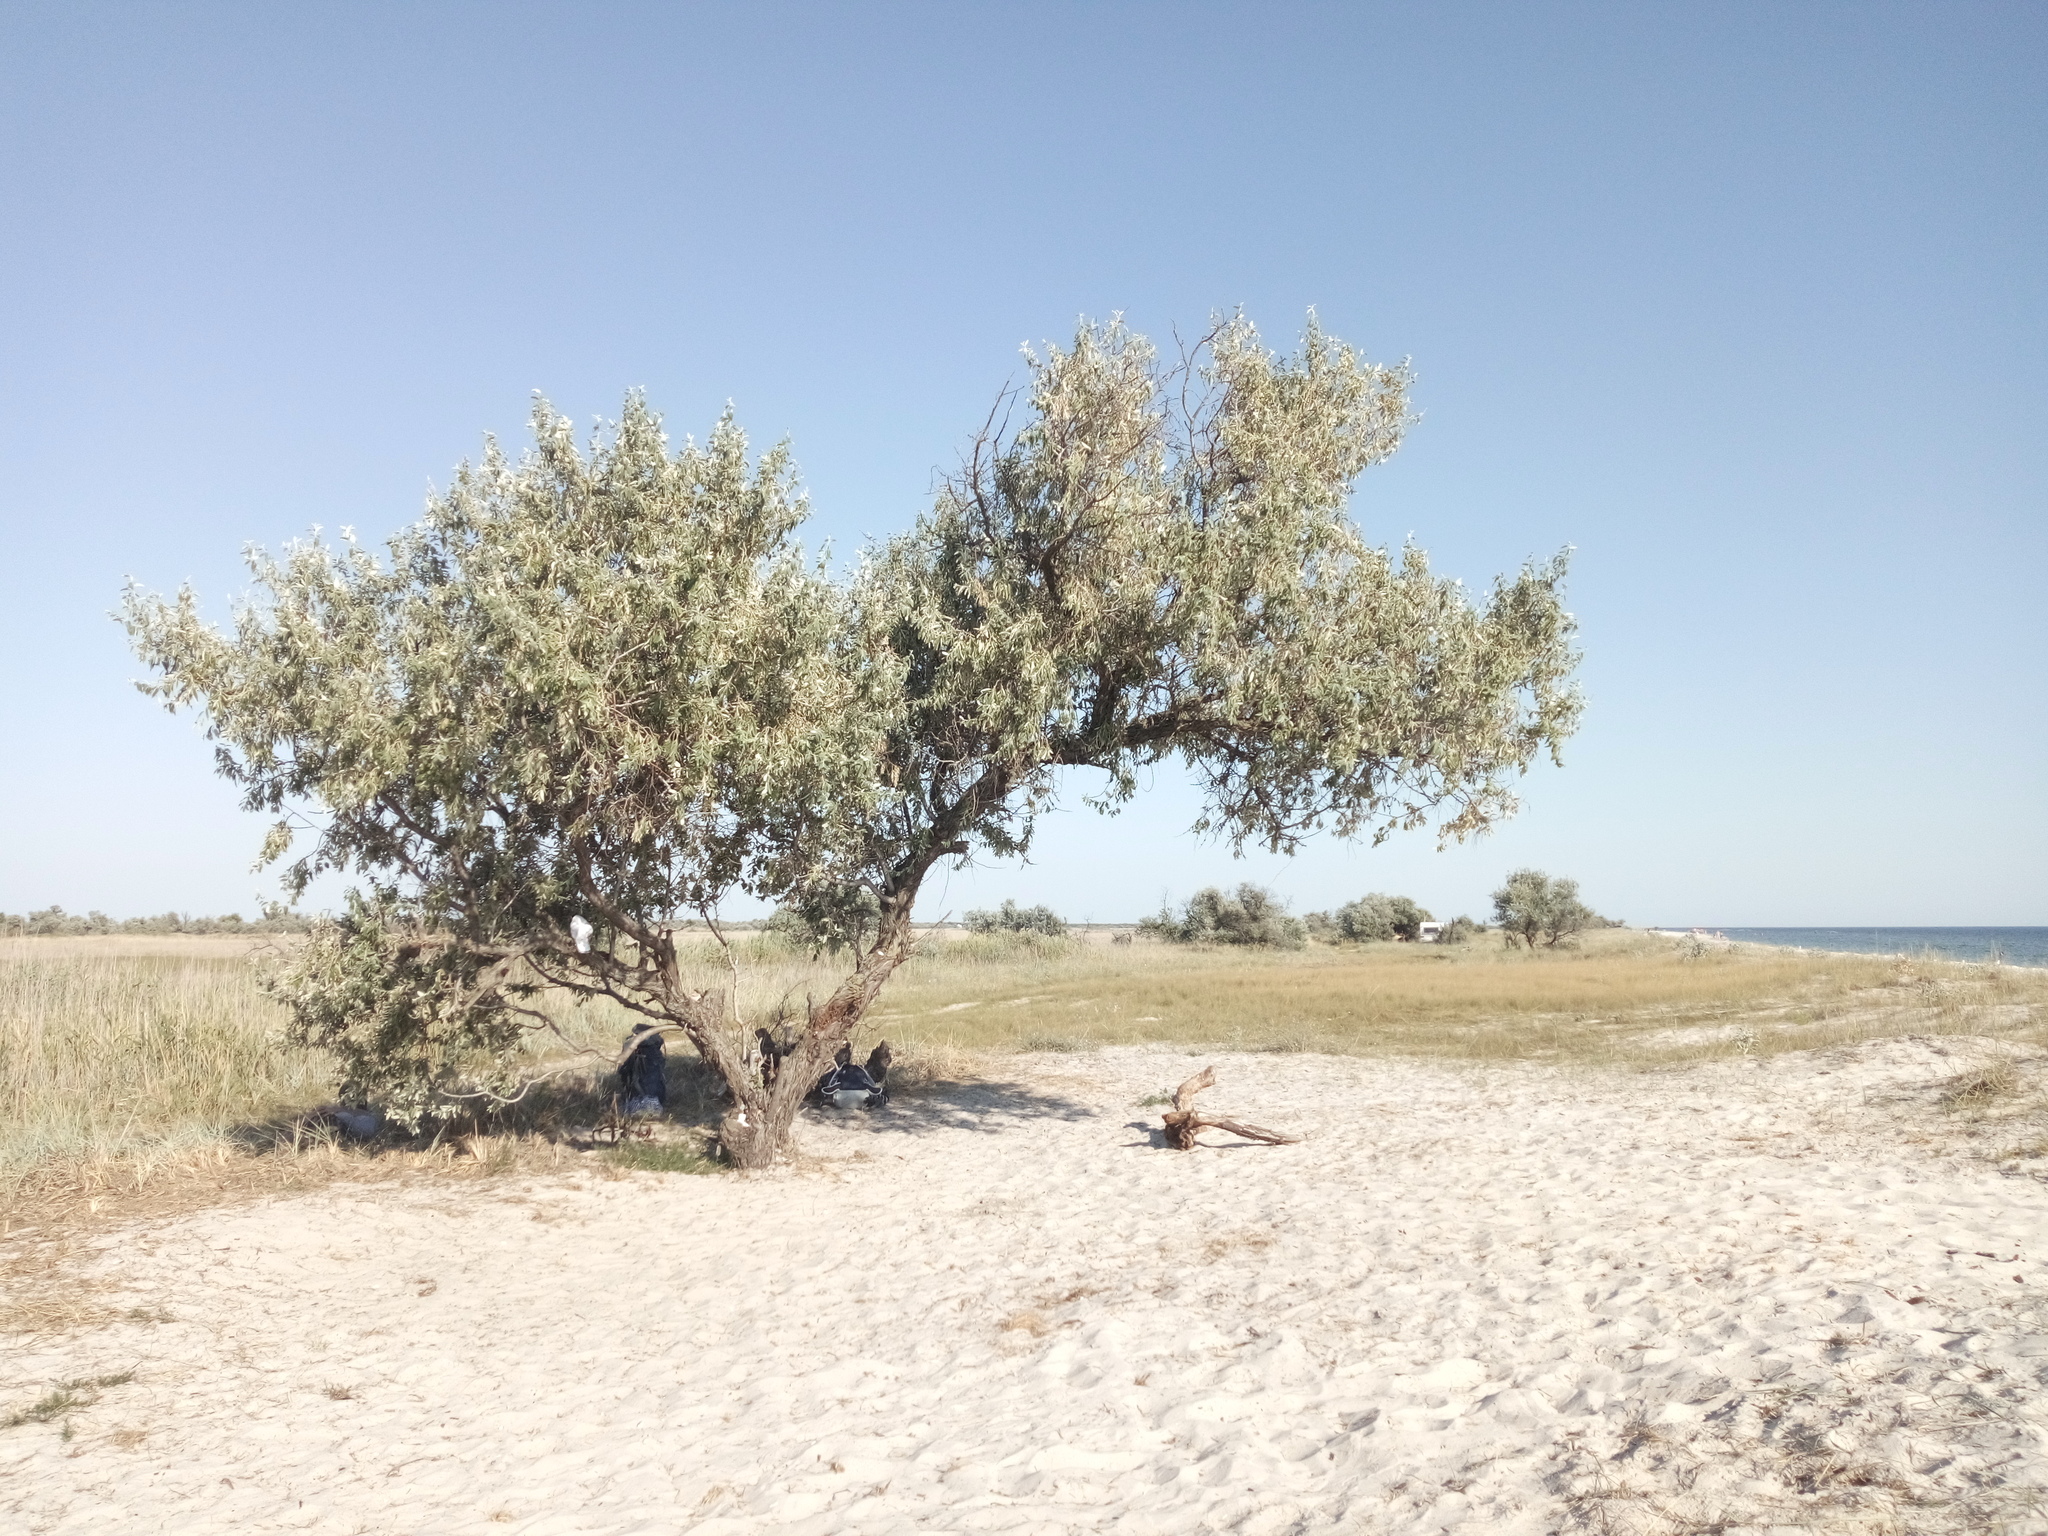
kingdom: Plantae
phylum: Tracheophyta
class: Magnoliopsida
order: Rosales
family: Elaeagnaceae
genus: Elaeagnus
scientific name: Elaeagnus angustifolia
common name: Russian olive
